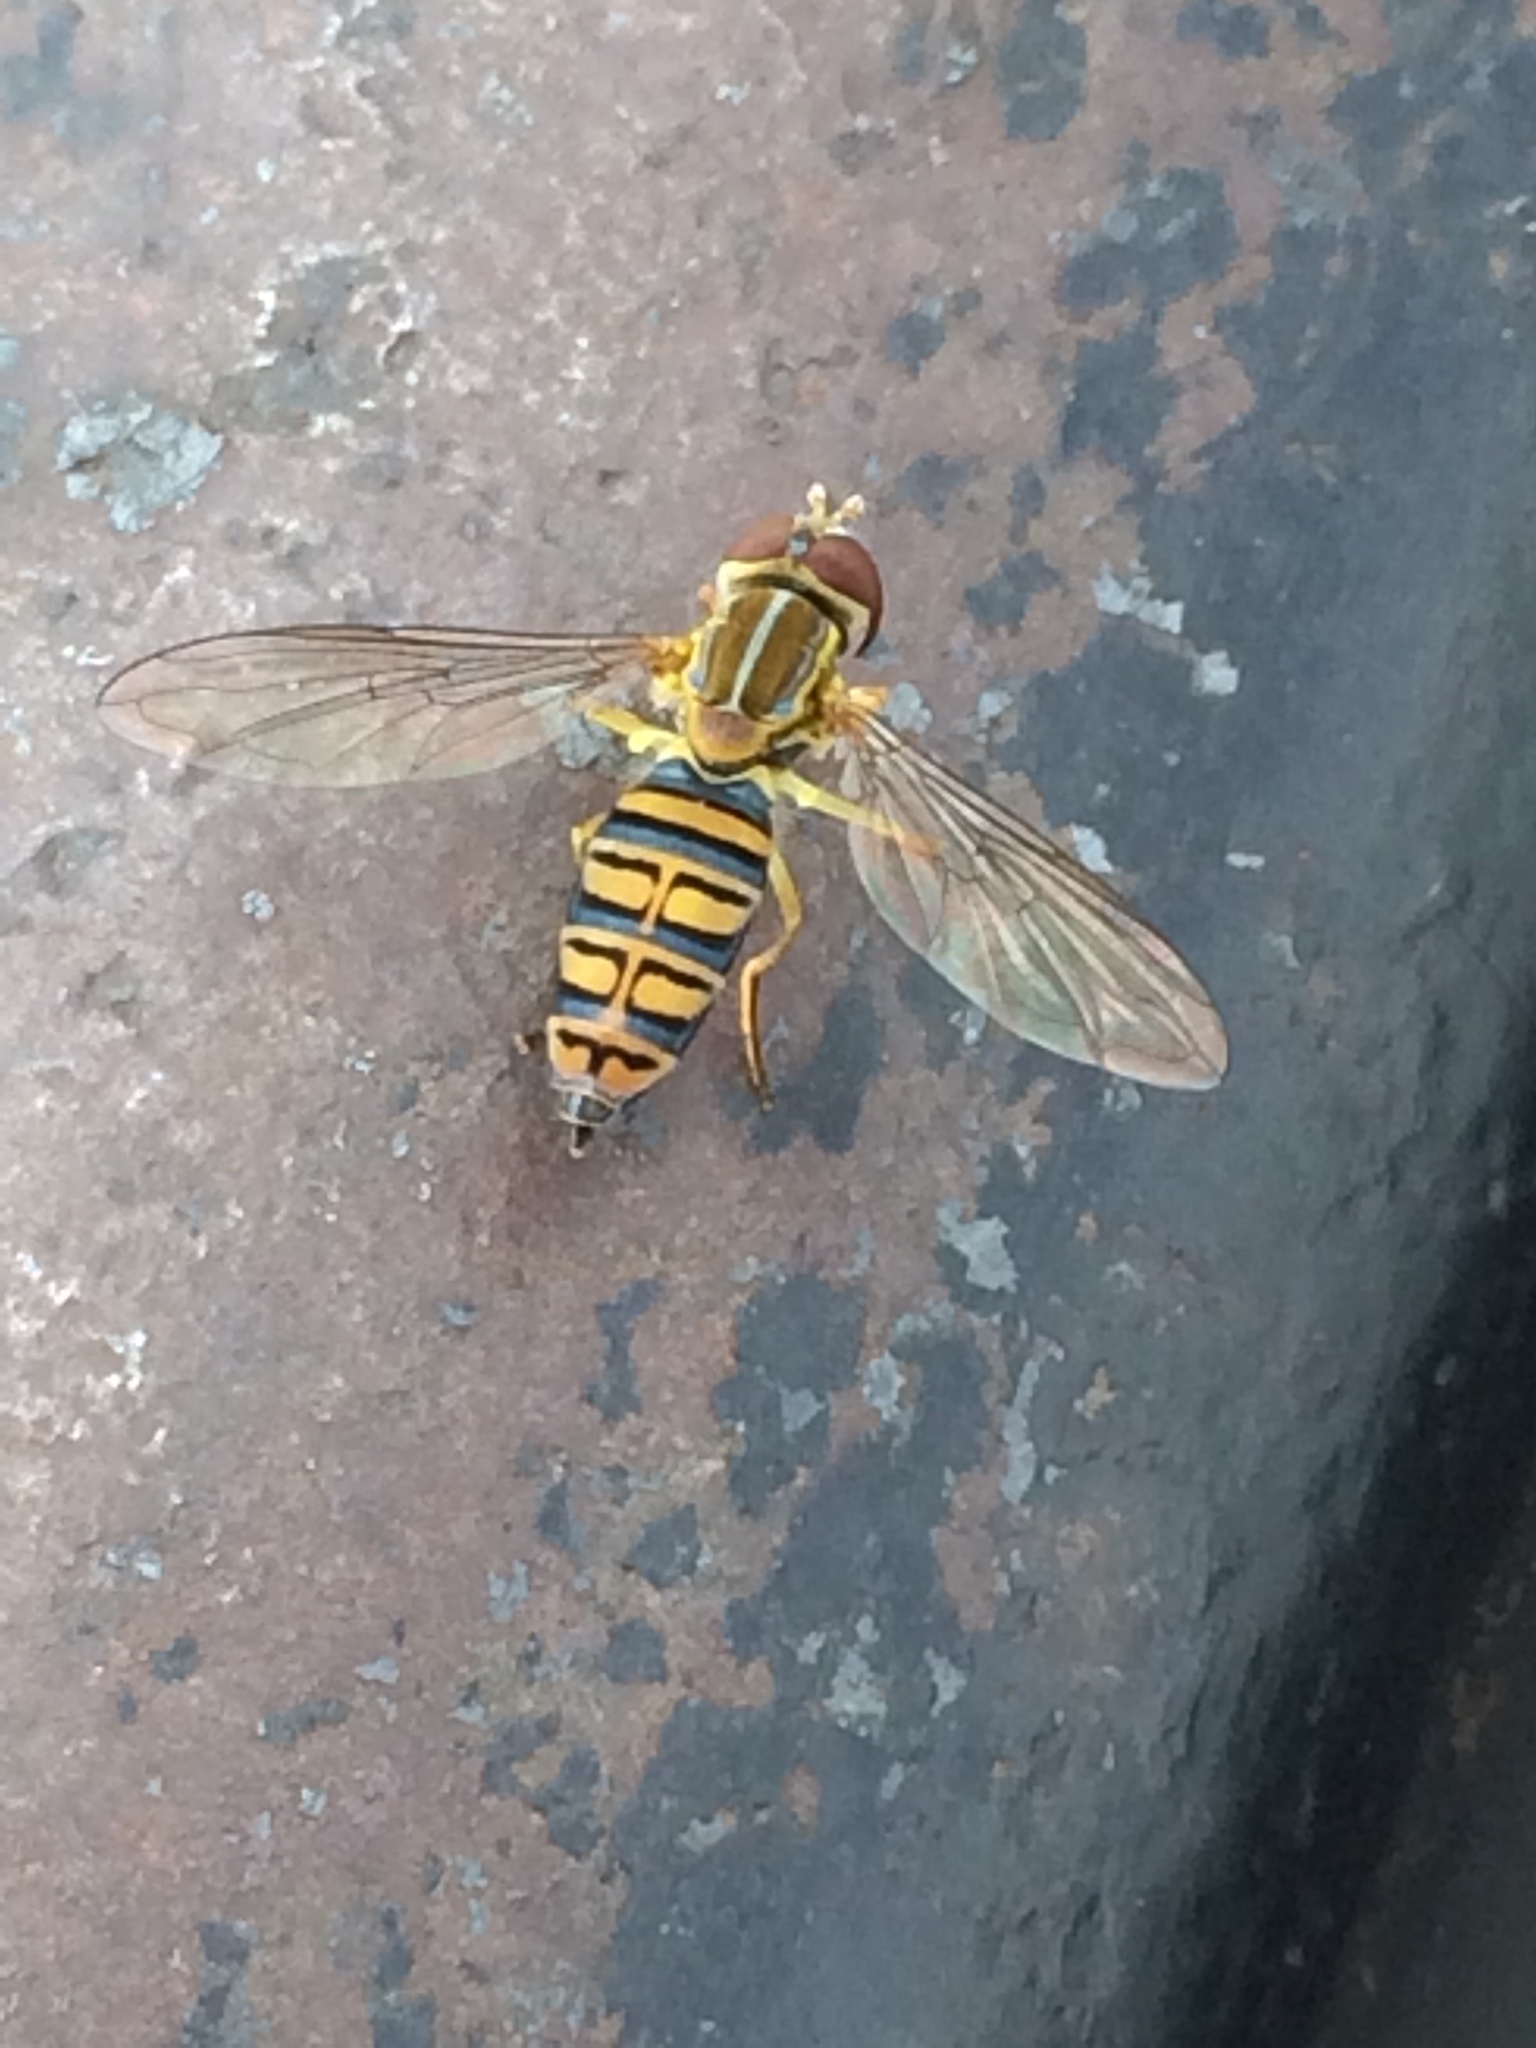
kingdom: Animalia
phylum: Arthropoda
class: Insecta
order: Diptera
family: Syrphidae
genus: Toxomerus
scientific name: Toxomerus politus
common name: Maize calligrapher
